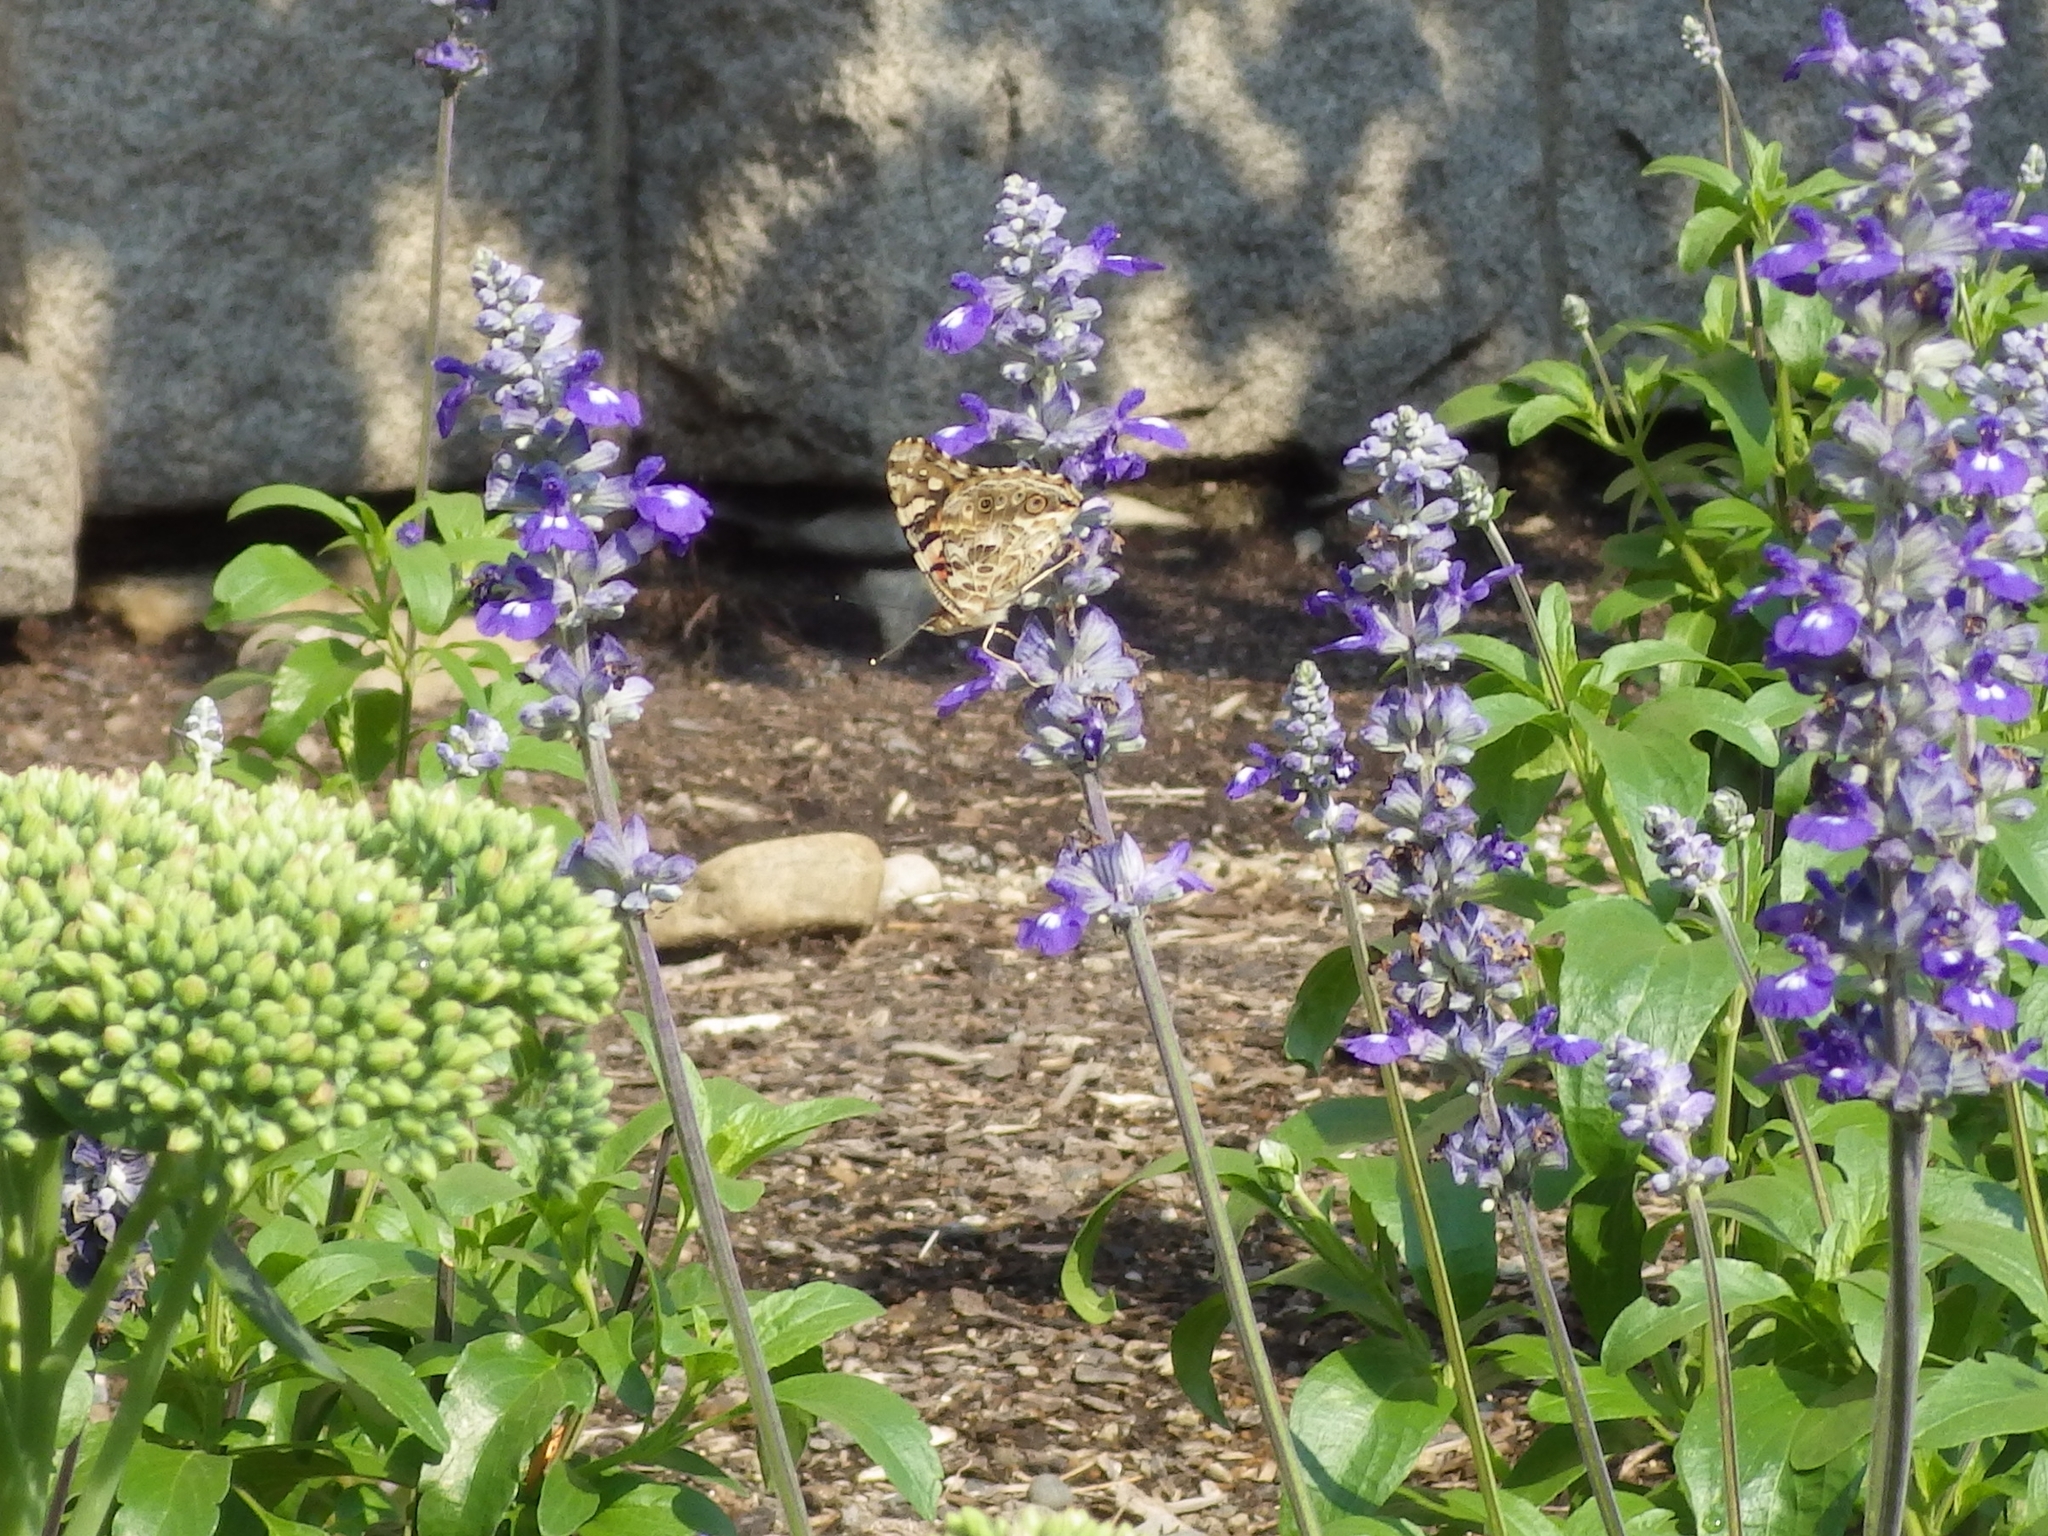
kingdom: Animalia
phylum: Arthropoda
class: Insecta
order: Lepidoptera
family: Nymphalidae
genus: Vanessa
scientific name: Vanessa cardui
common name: Painted lady
